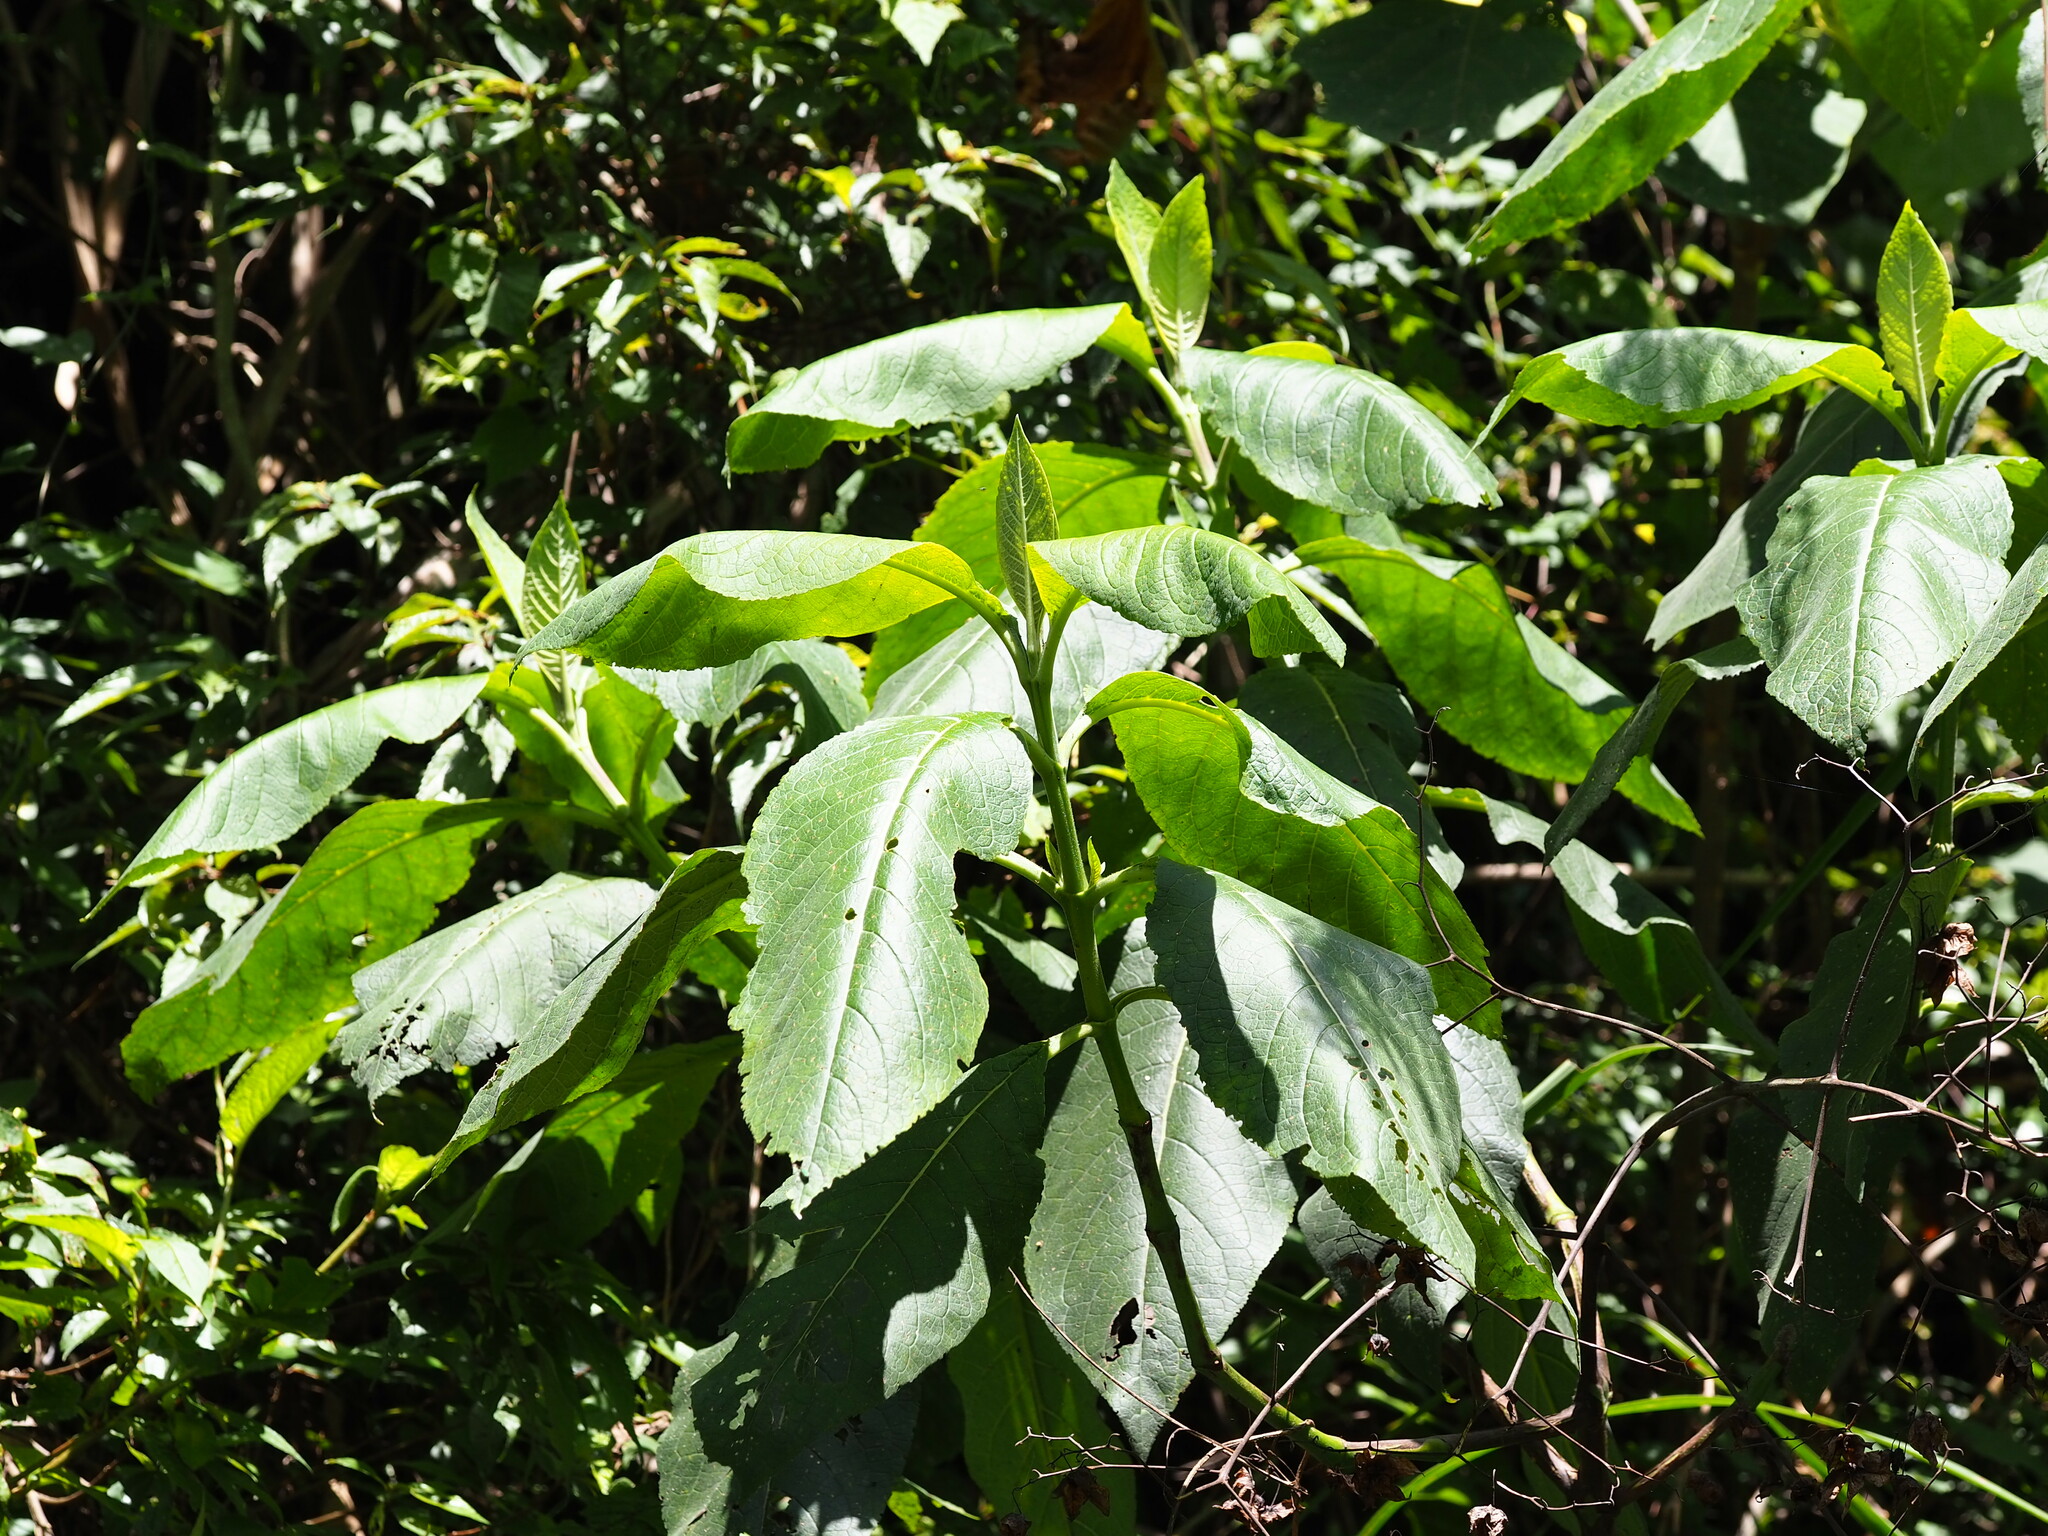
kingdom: Plantae
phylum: Tracheophyta
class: Magnoliopsida
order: Boraginales
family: Boraginaceae
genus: Trichodesma
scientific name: Trichodesma calycosum
